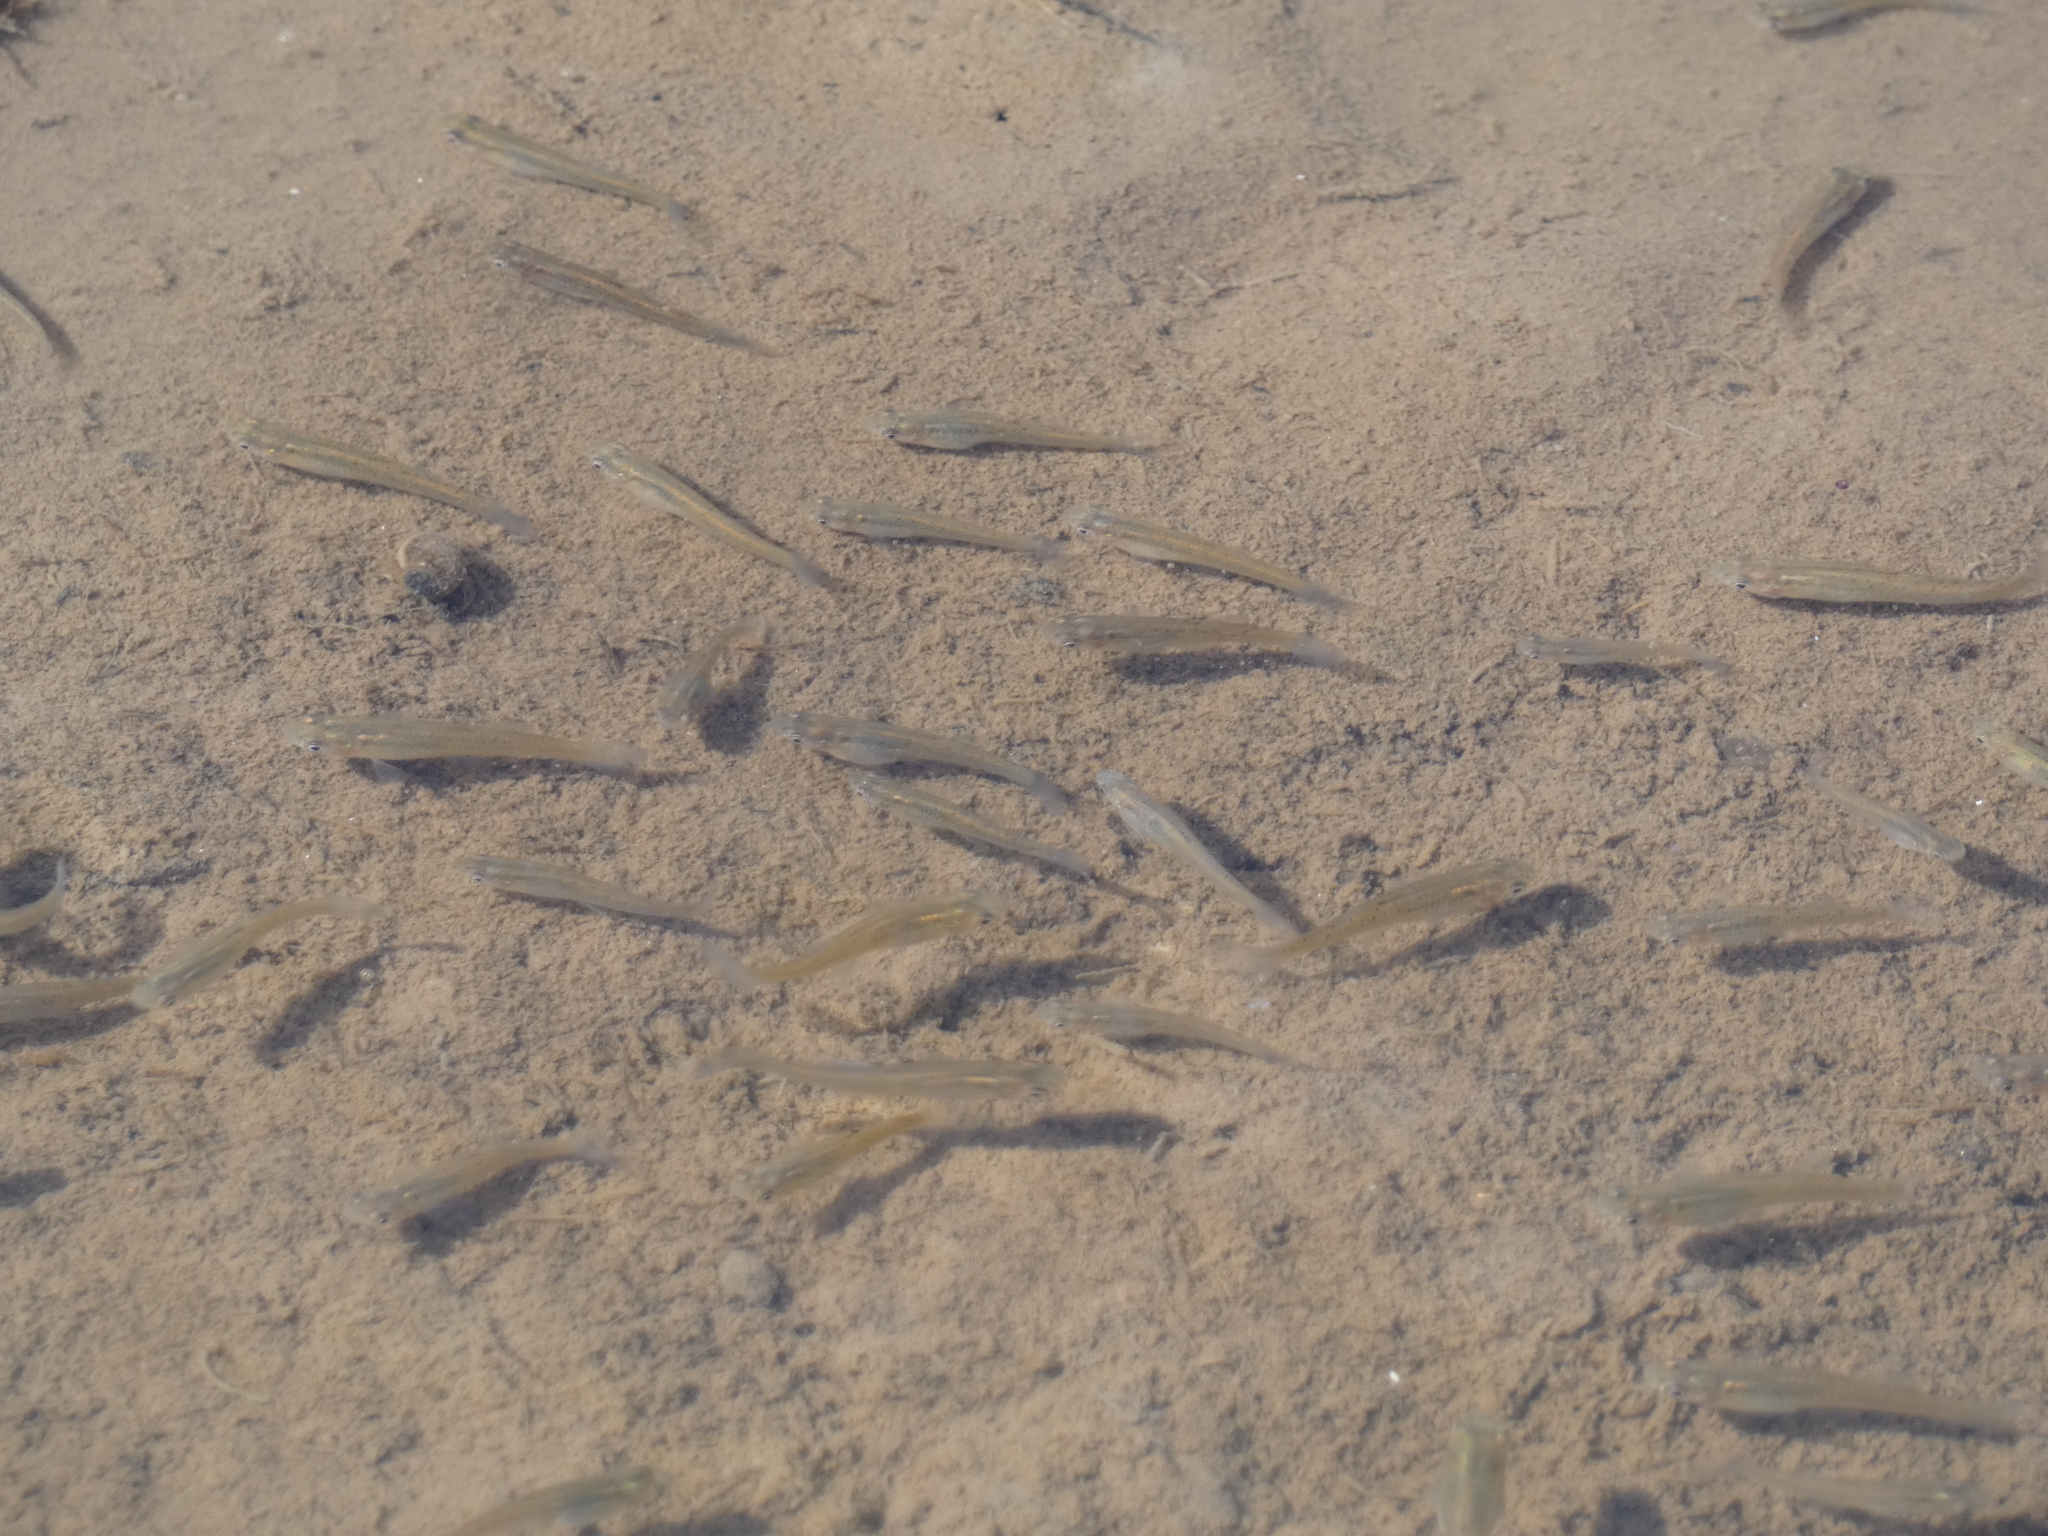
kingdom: Animalia
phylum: Chordata
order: Cyprinodontiformes
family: Poeciliidae
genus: Gambusia
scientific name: Gambusia affinis
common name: Mosquitofish
